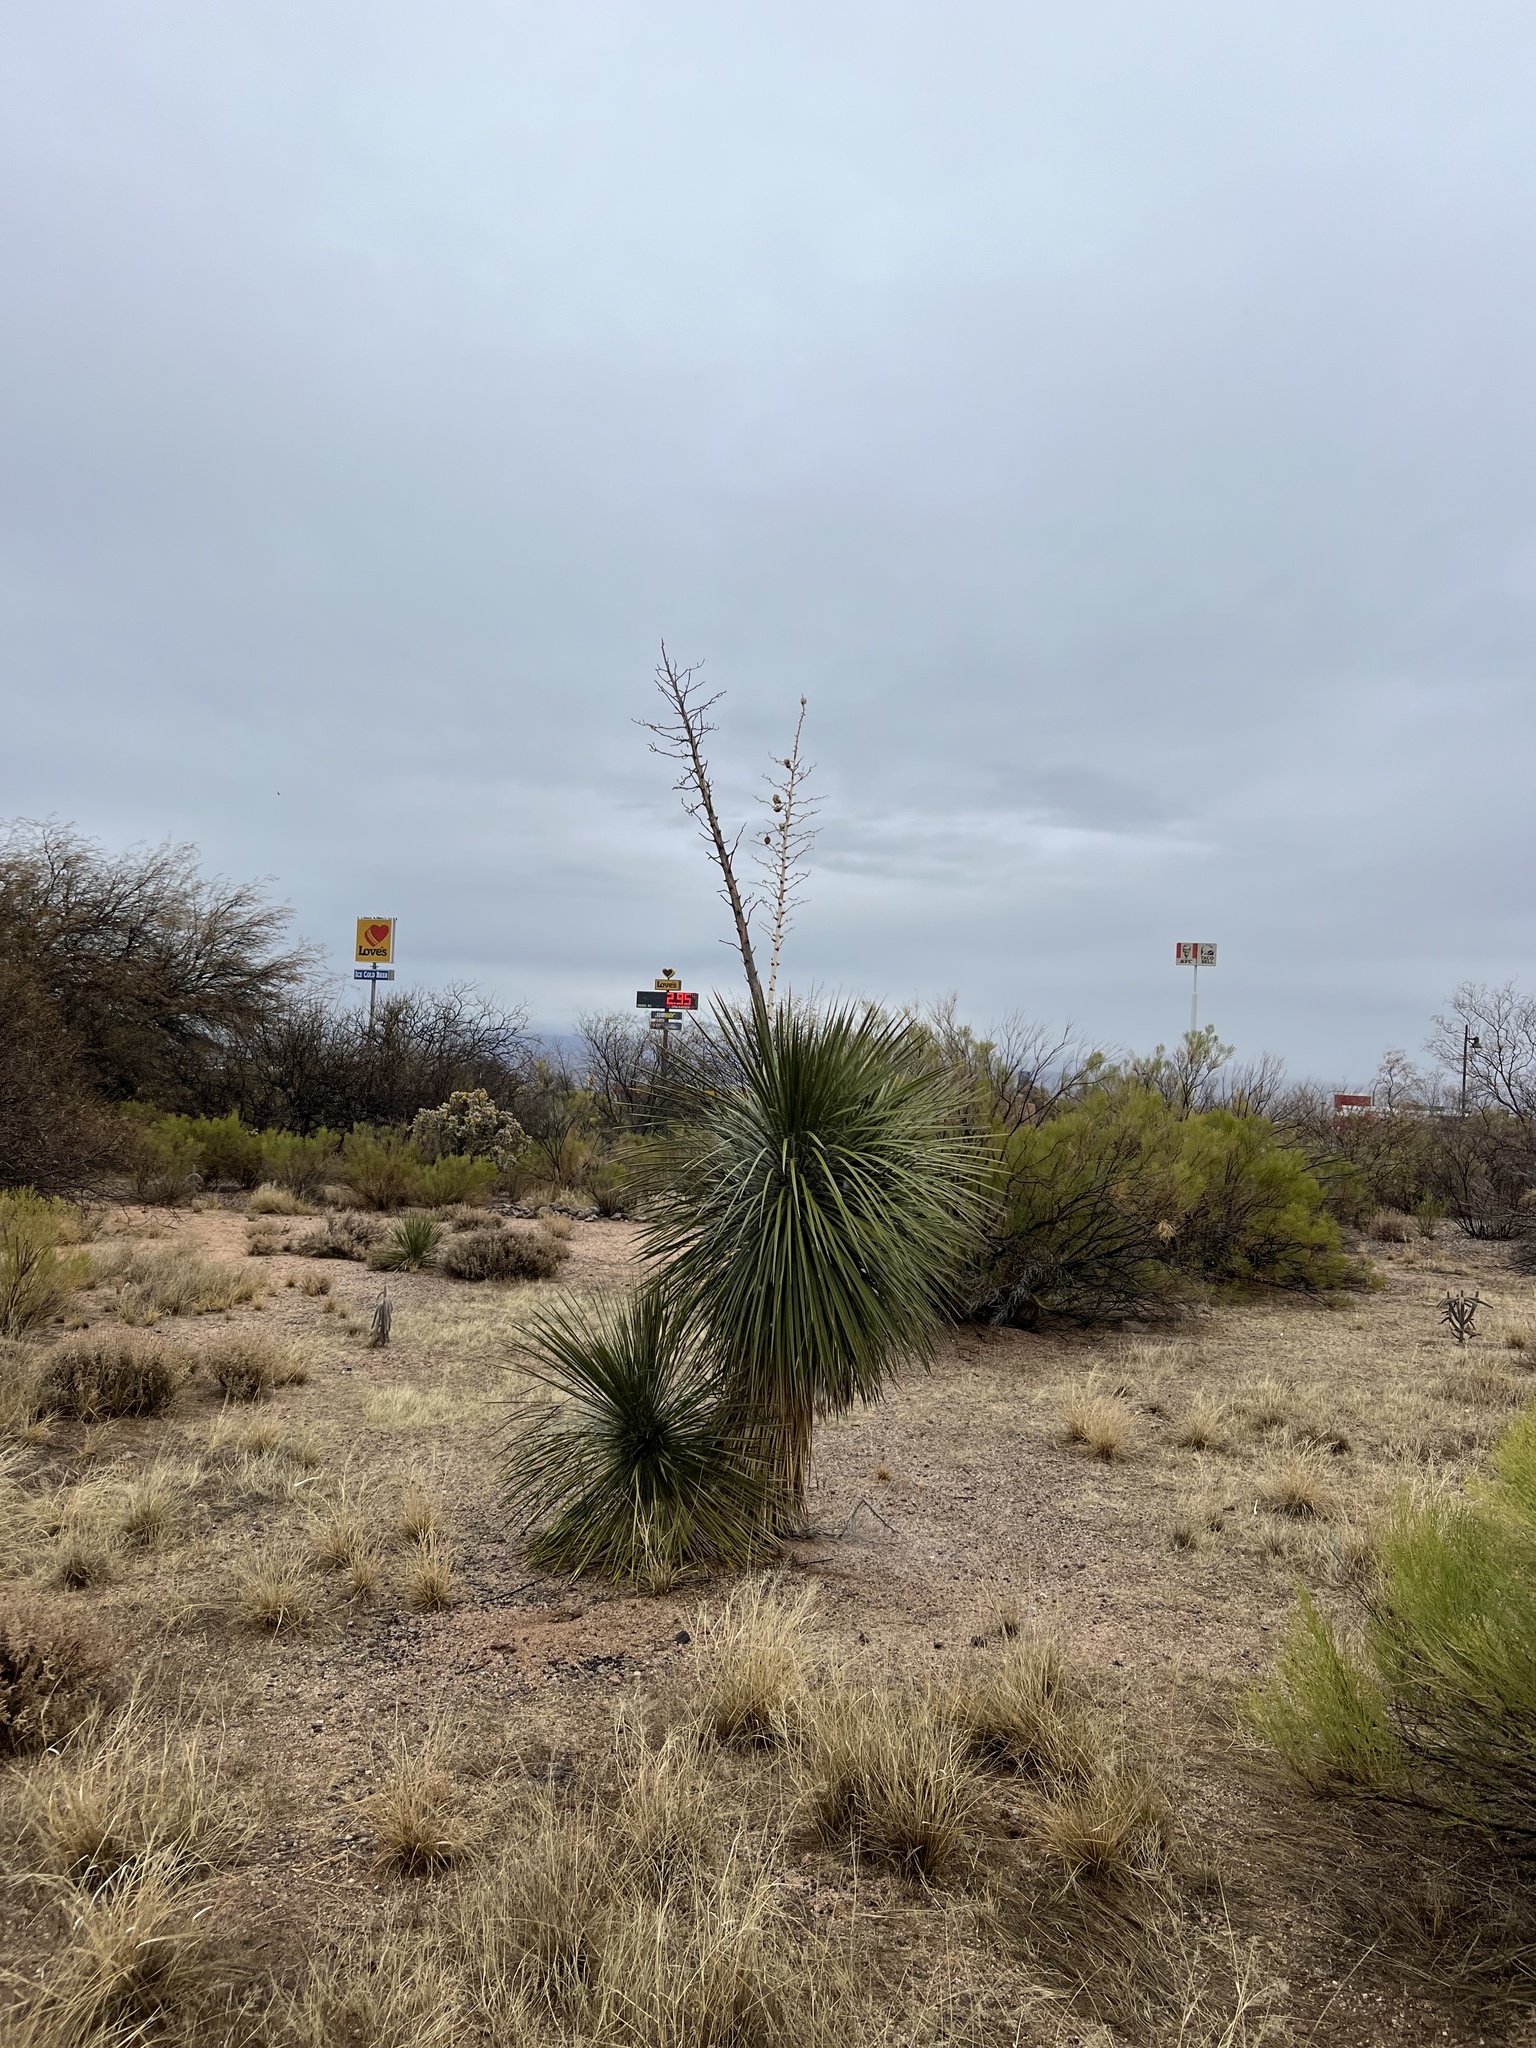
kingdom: Plantae
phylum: Tracheophyta
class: Liliopsida
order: Asparagales
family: Asparagaceae
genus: Yucca
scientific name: Yucca elata
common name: Palmella
